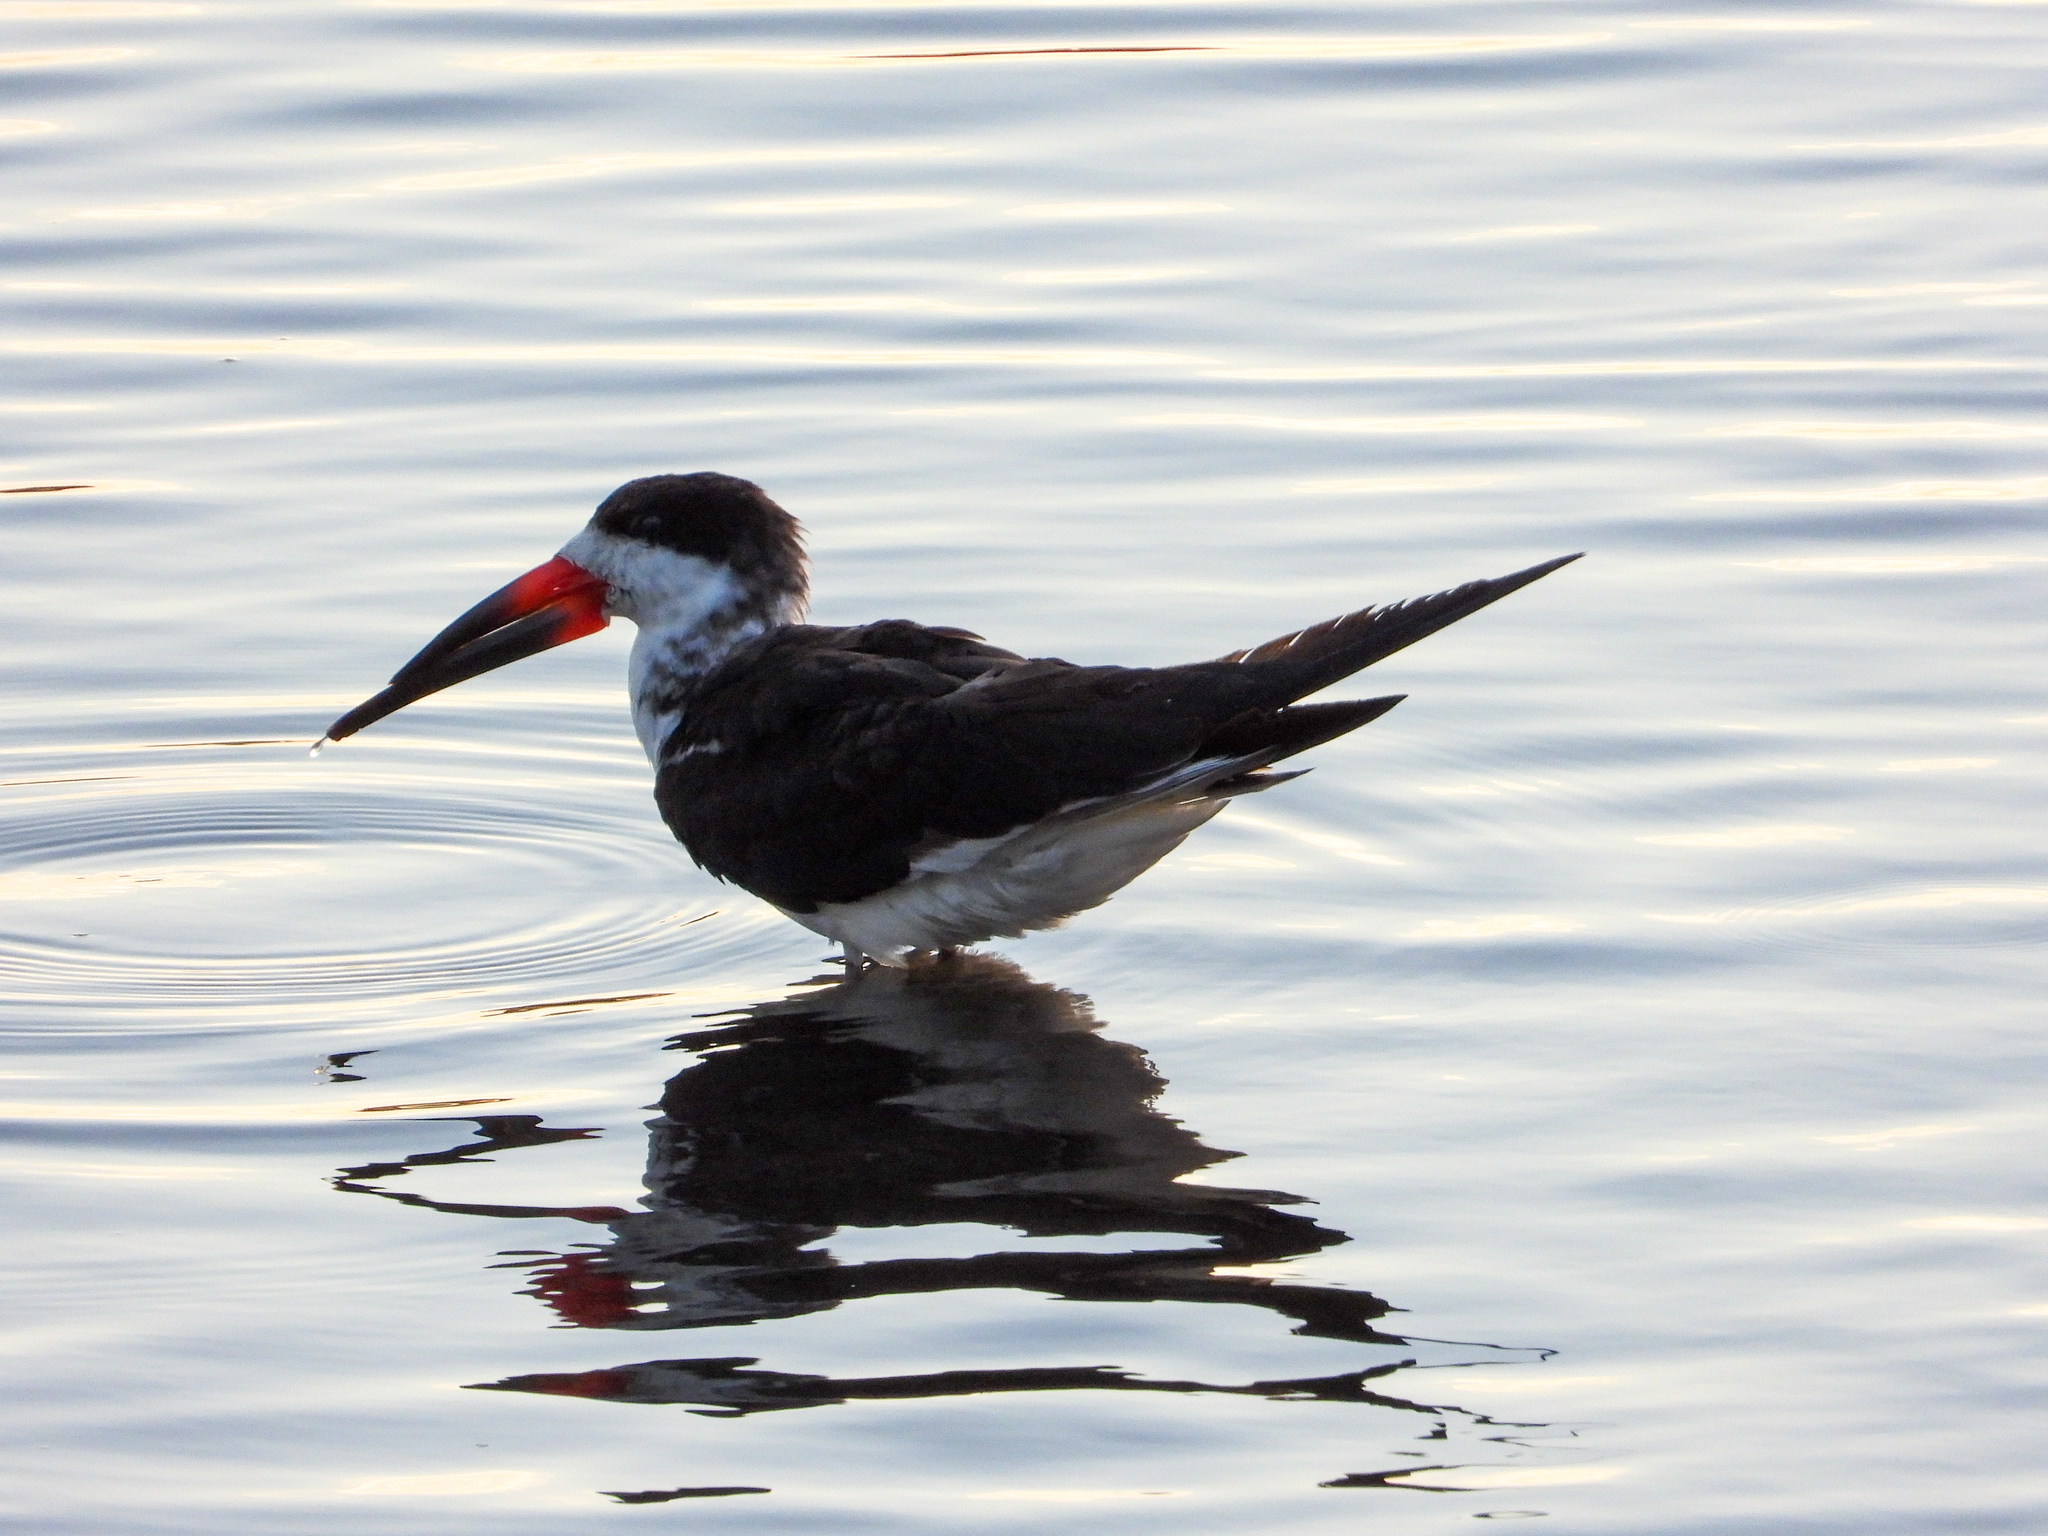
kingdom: Animalia
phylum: Chordata
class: Aves
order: Charadriiformes
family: Laridae
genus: Rynchops
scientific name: Rynchops niger
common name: Black skimmer
